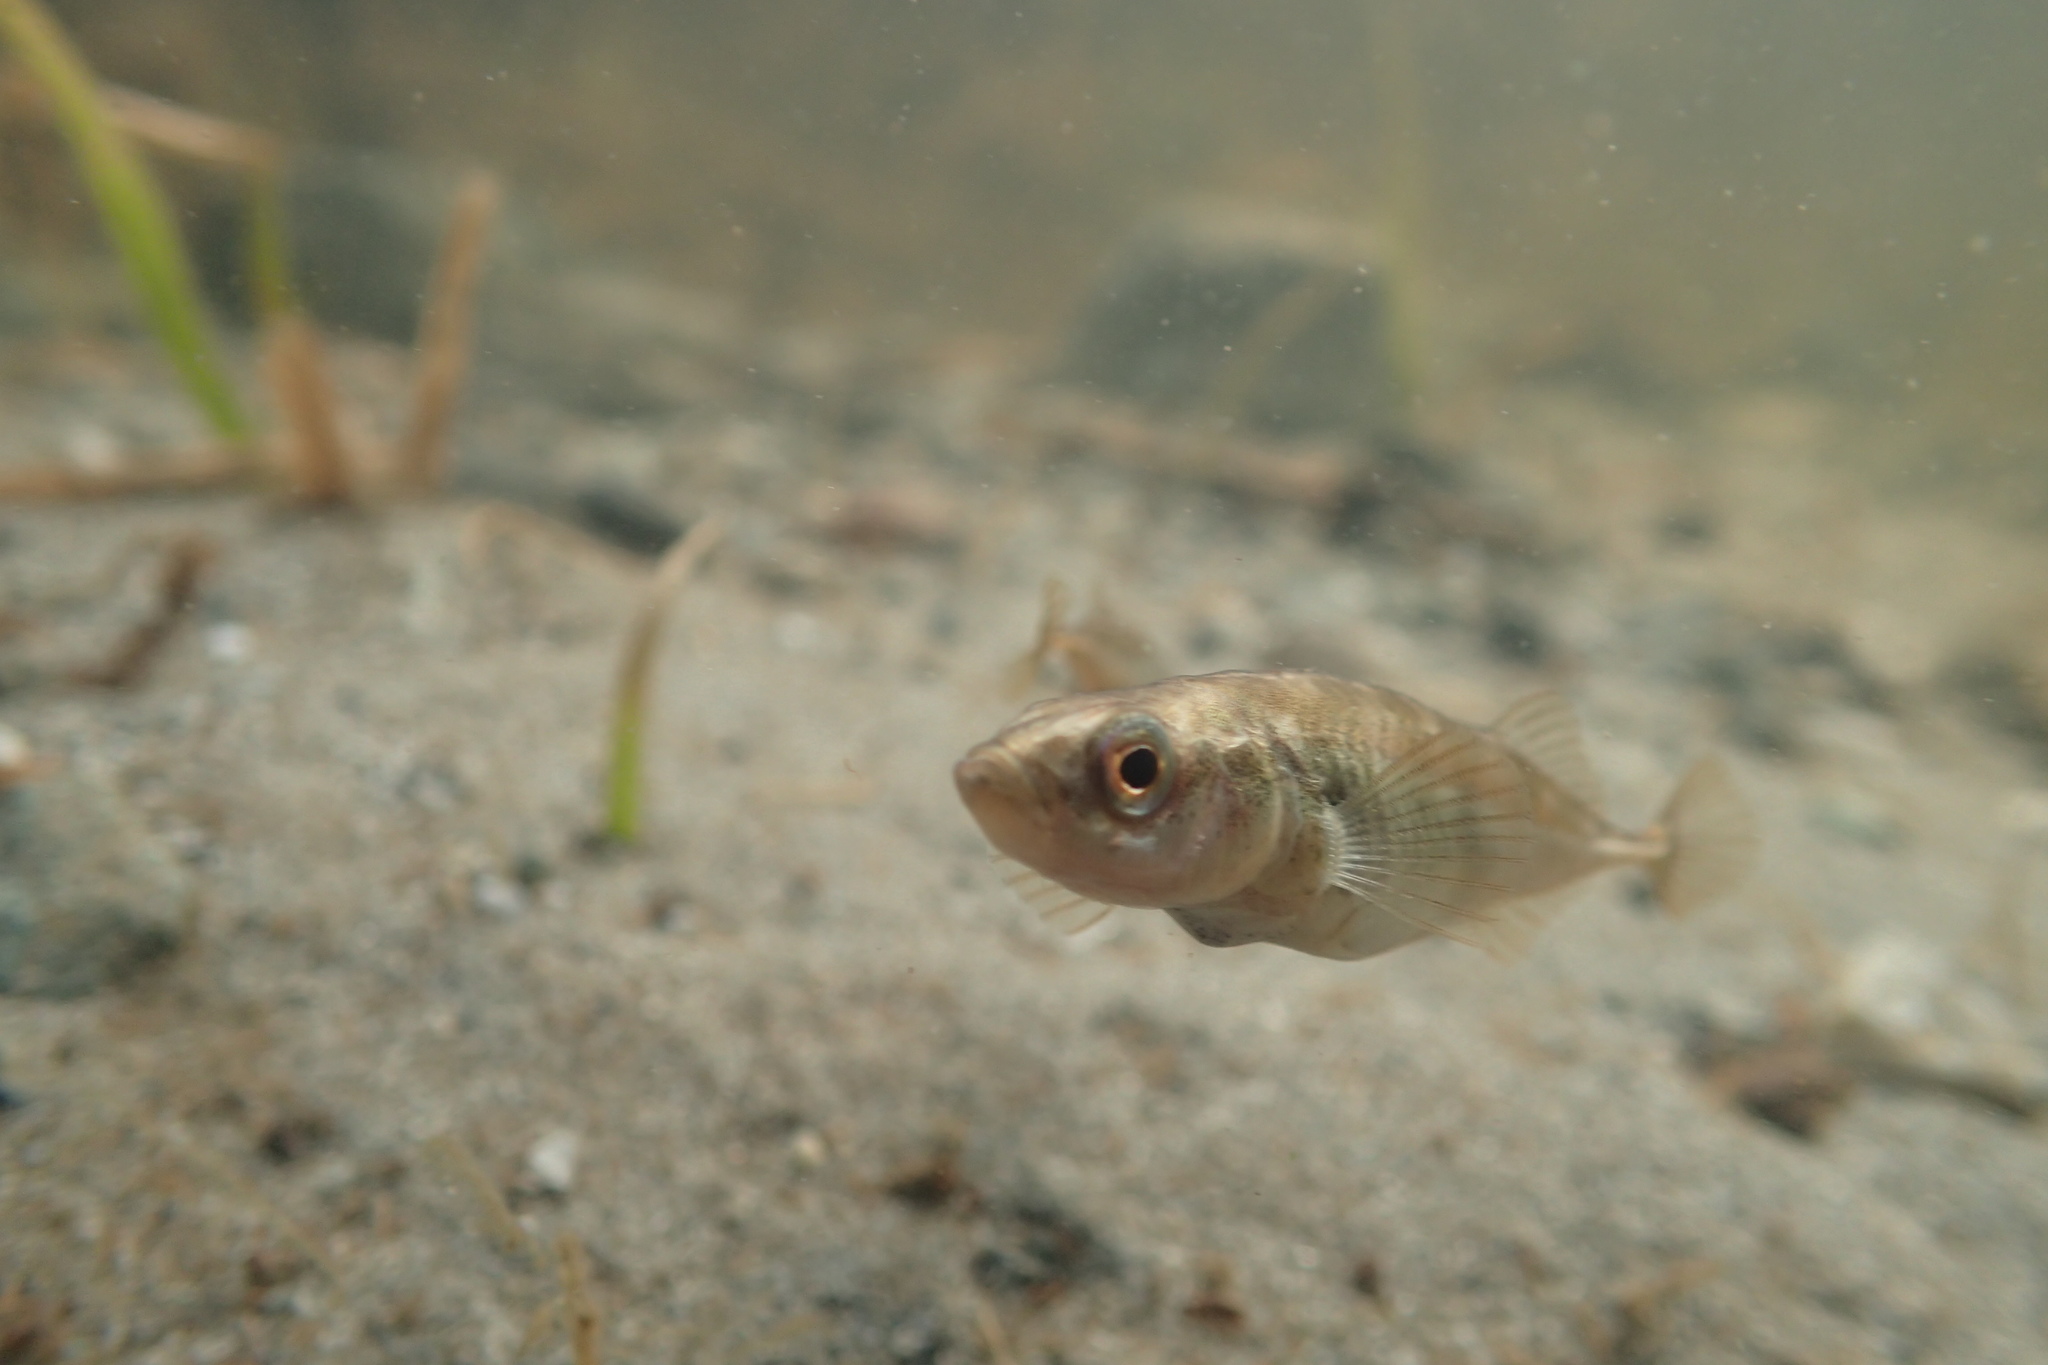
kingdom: Animalia
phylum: Chordata
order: Gasterosteiformes
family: Gasterosteidae
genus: Gasterosteus
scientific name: Gasterosteus aculeatus
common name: Three-spined stickleback
